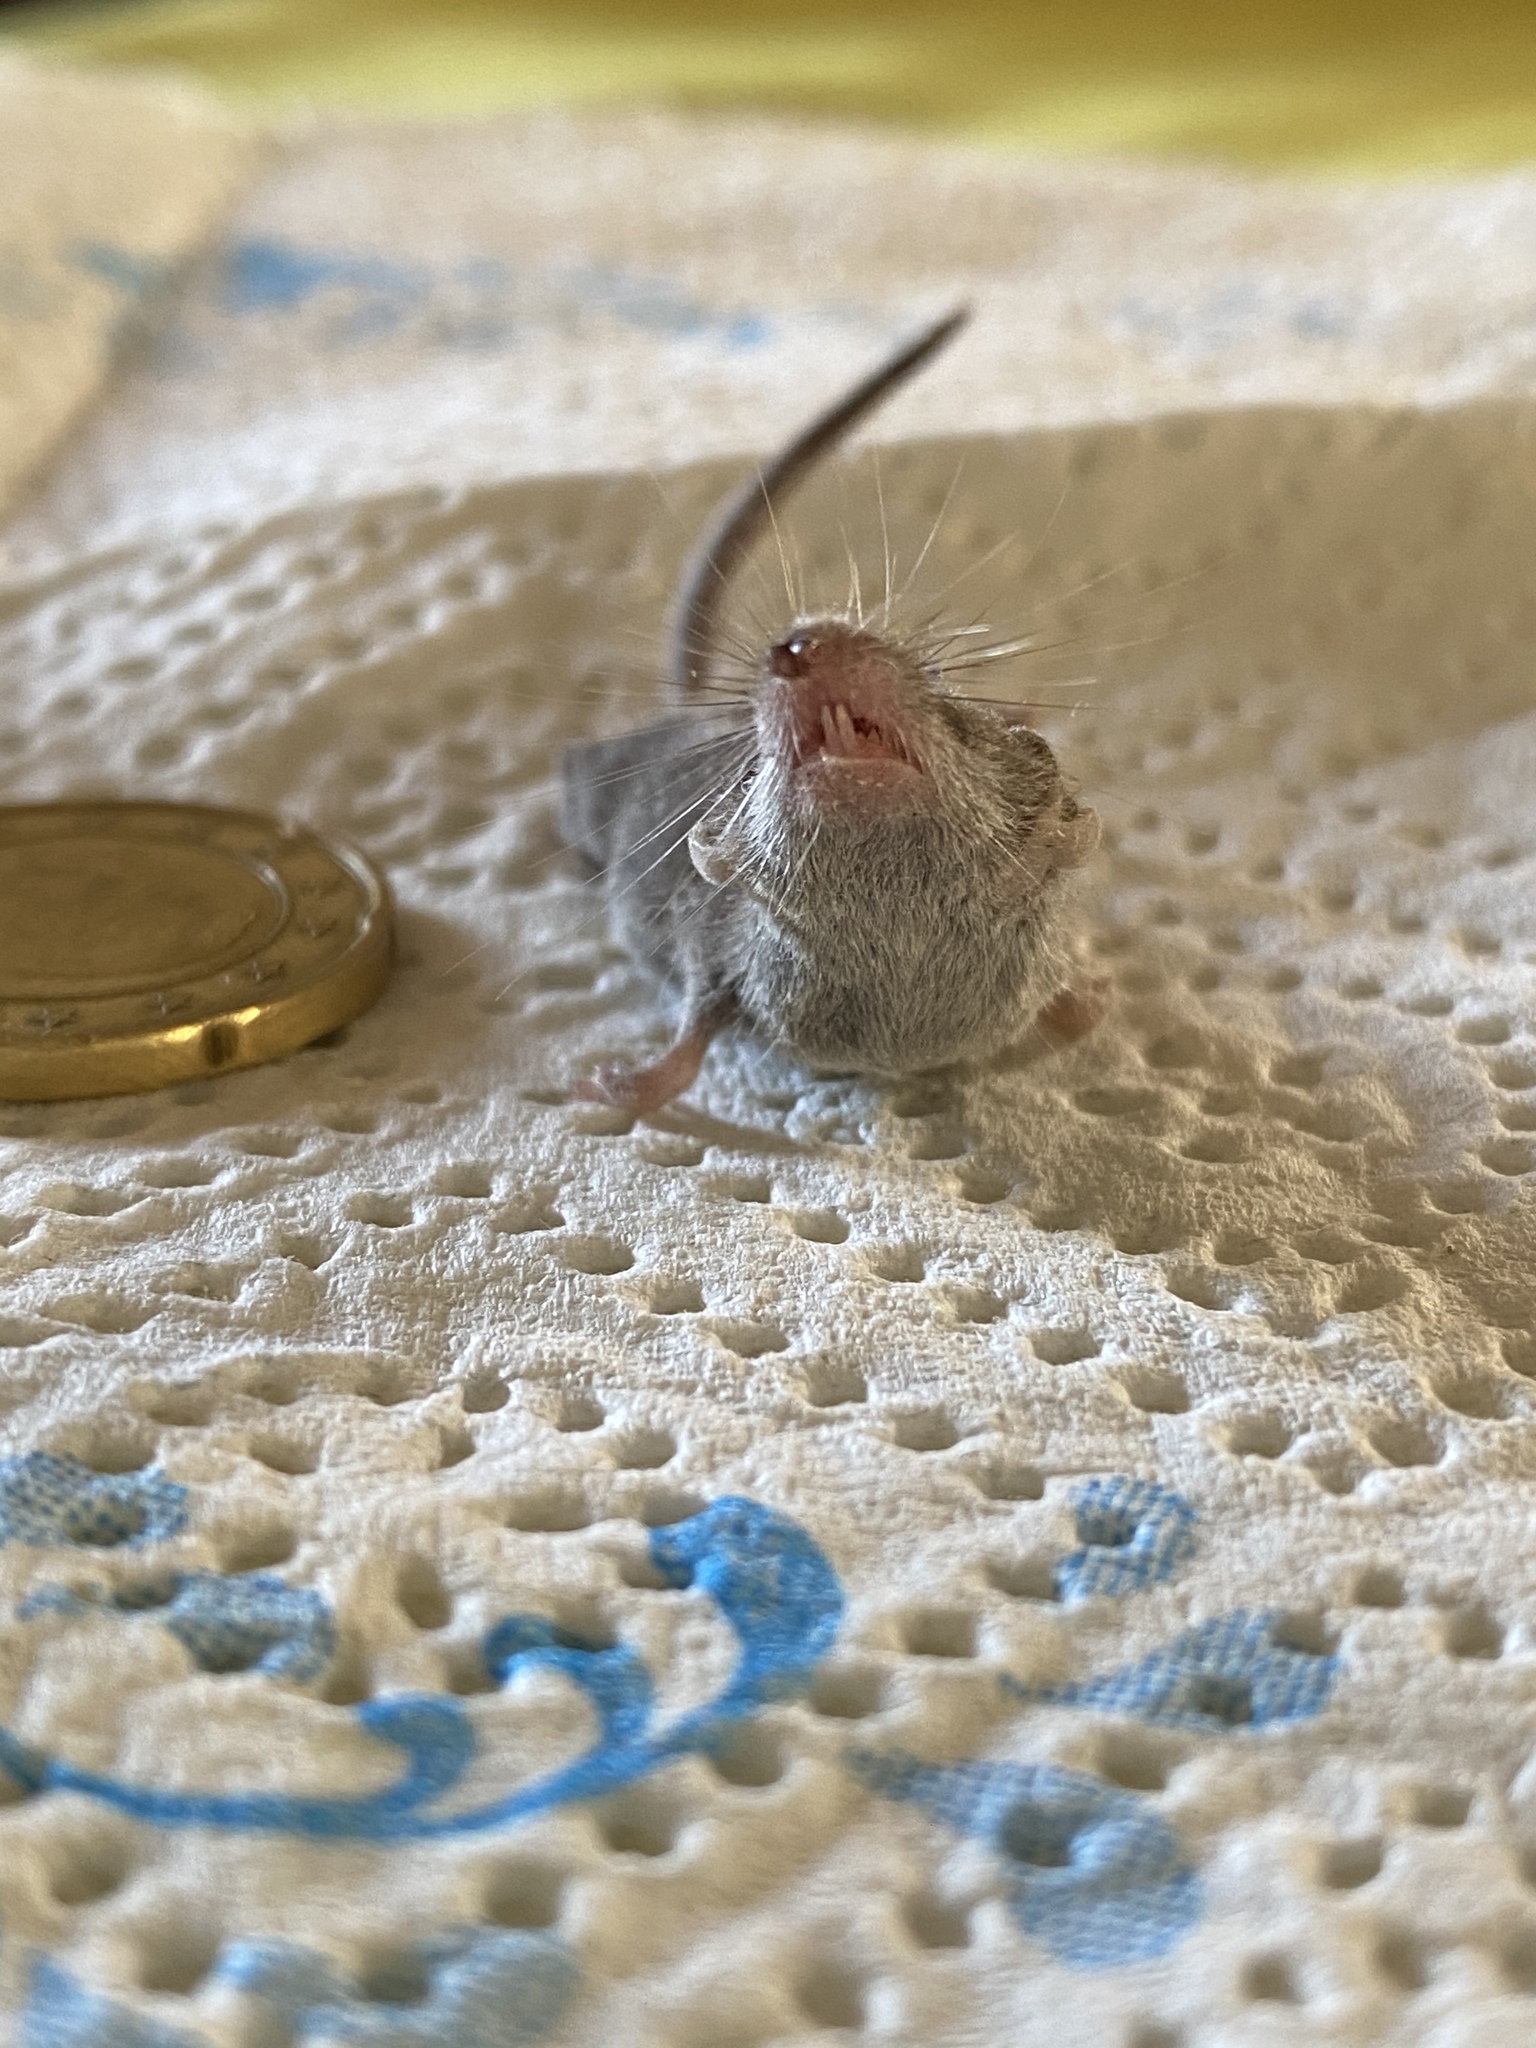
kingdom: Animalia
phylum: Chordata
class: Mammalia
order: Soricomorpha
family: Soricidae
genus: Suncus
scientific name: Suncus etruscus
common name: Etruscan shrew
